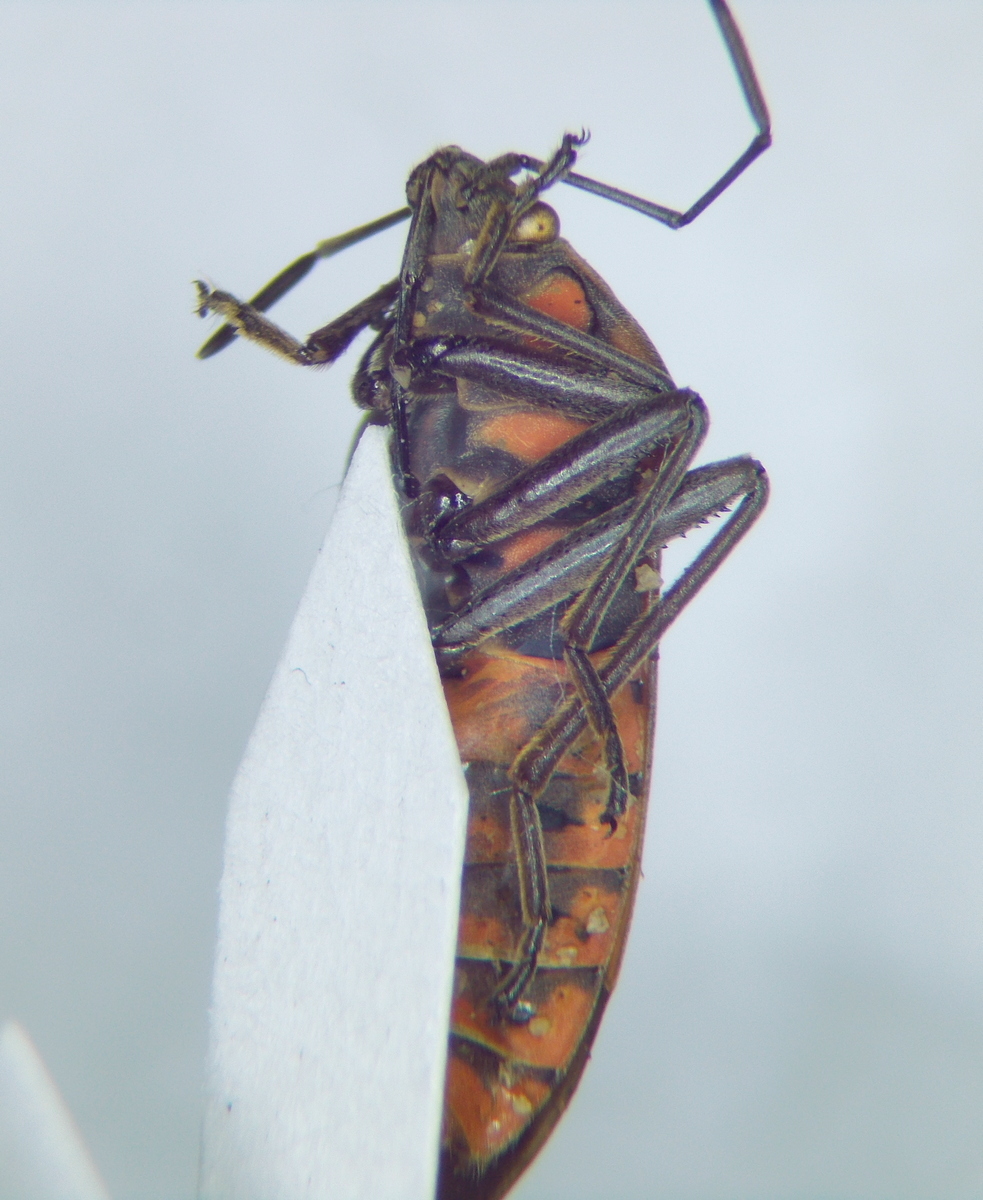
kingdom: Animalia
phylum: Arthropoda
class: Insecta
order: Hemiptera
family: Lygaeidae
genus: Spilostethus
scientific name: Spilostethus pandurus
